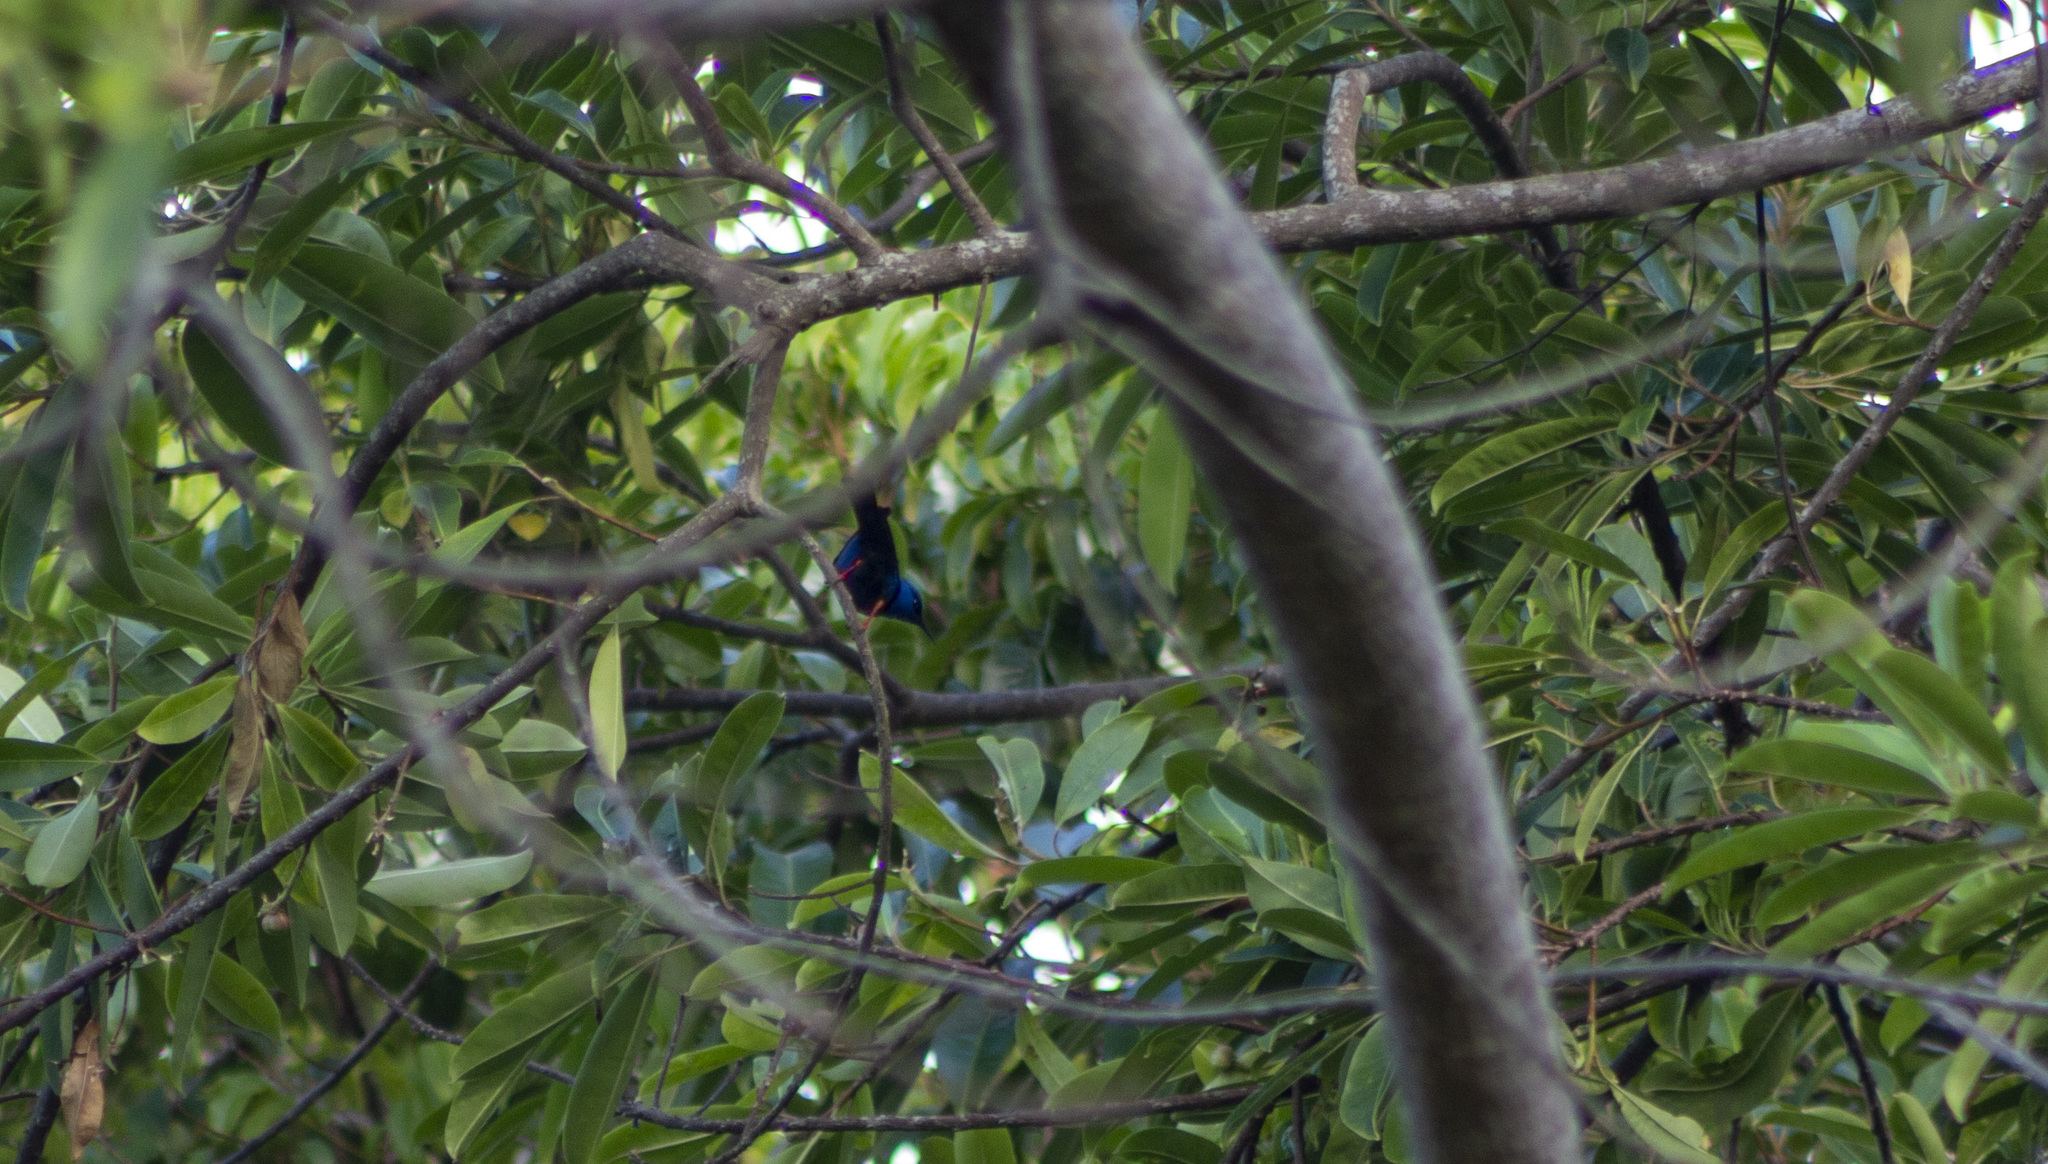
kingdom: Animalia
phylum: Chordata
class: Aves
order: Passeriformes
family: Thraupidae
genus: Cyanerpes
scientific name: Cyanerpes cyaneus
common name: Red-legged honeycreeper
